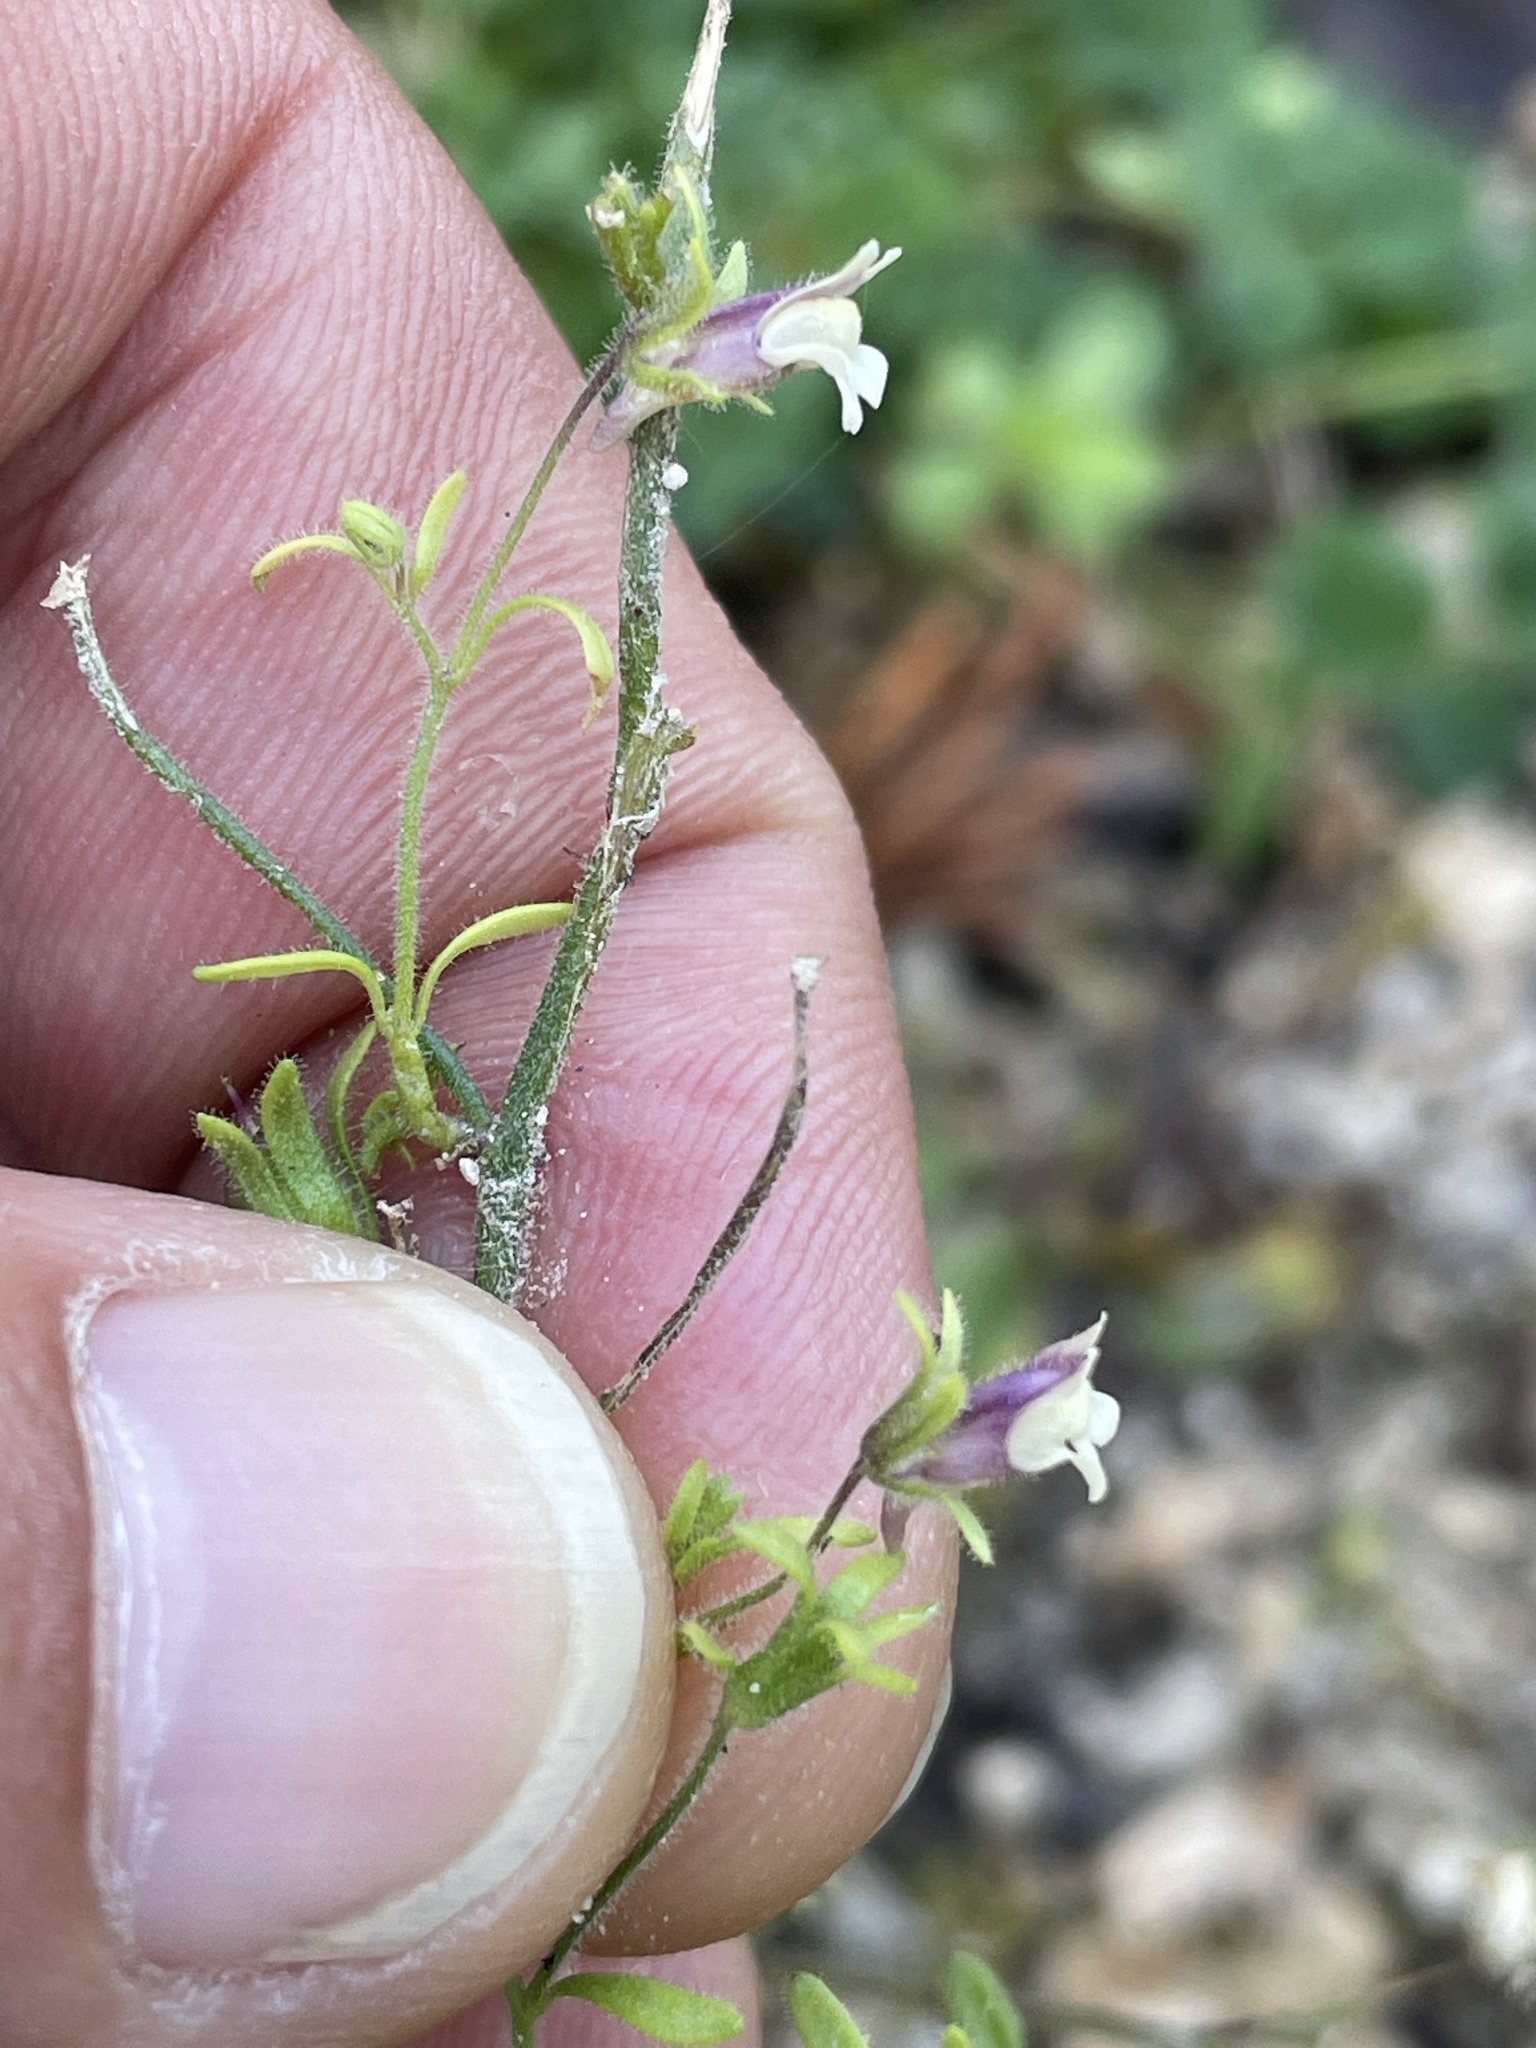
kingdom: Plantae
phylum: Tracheophyta
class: Magnoliopsida
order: Lamiales
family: Plantaginaceae
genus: Chaenorhinum
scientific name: Chaenorhinum minus
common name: Dwarf snapdragon
